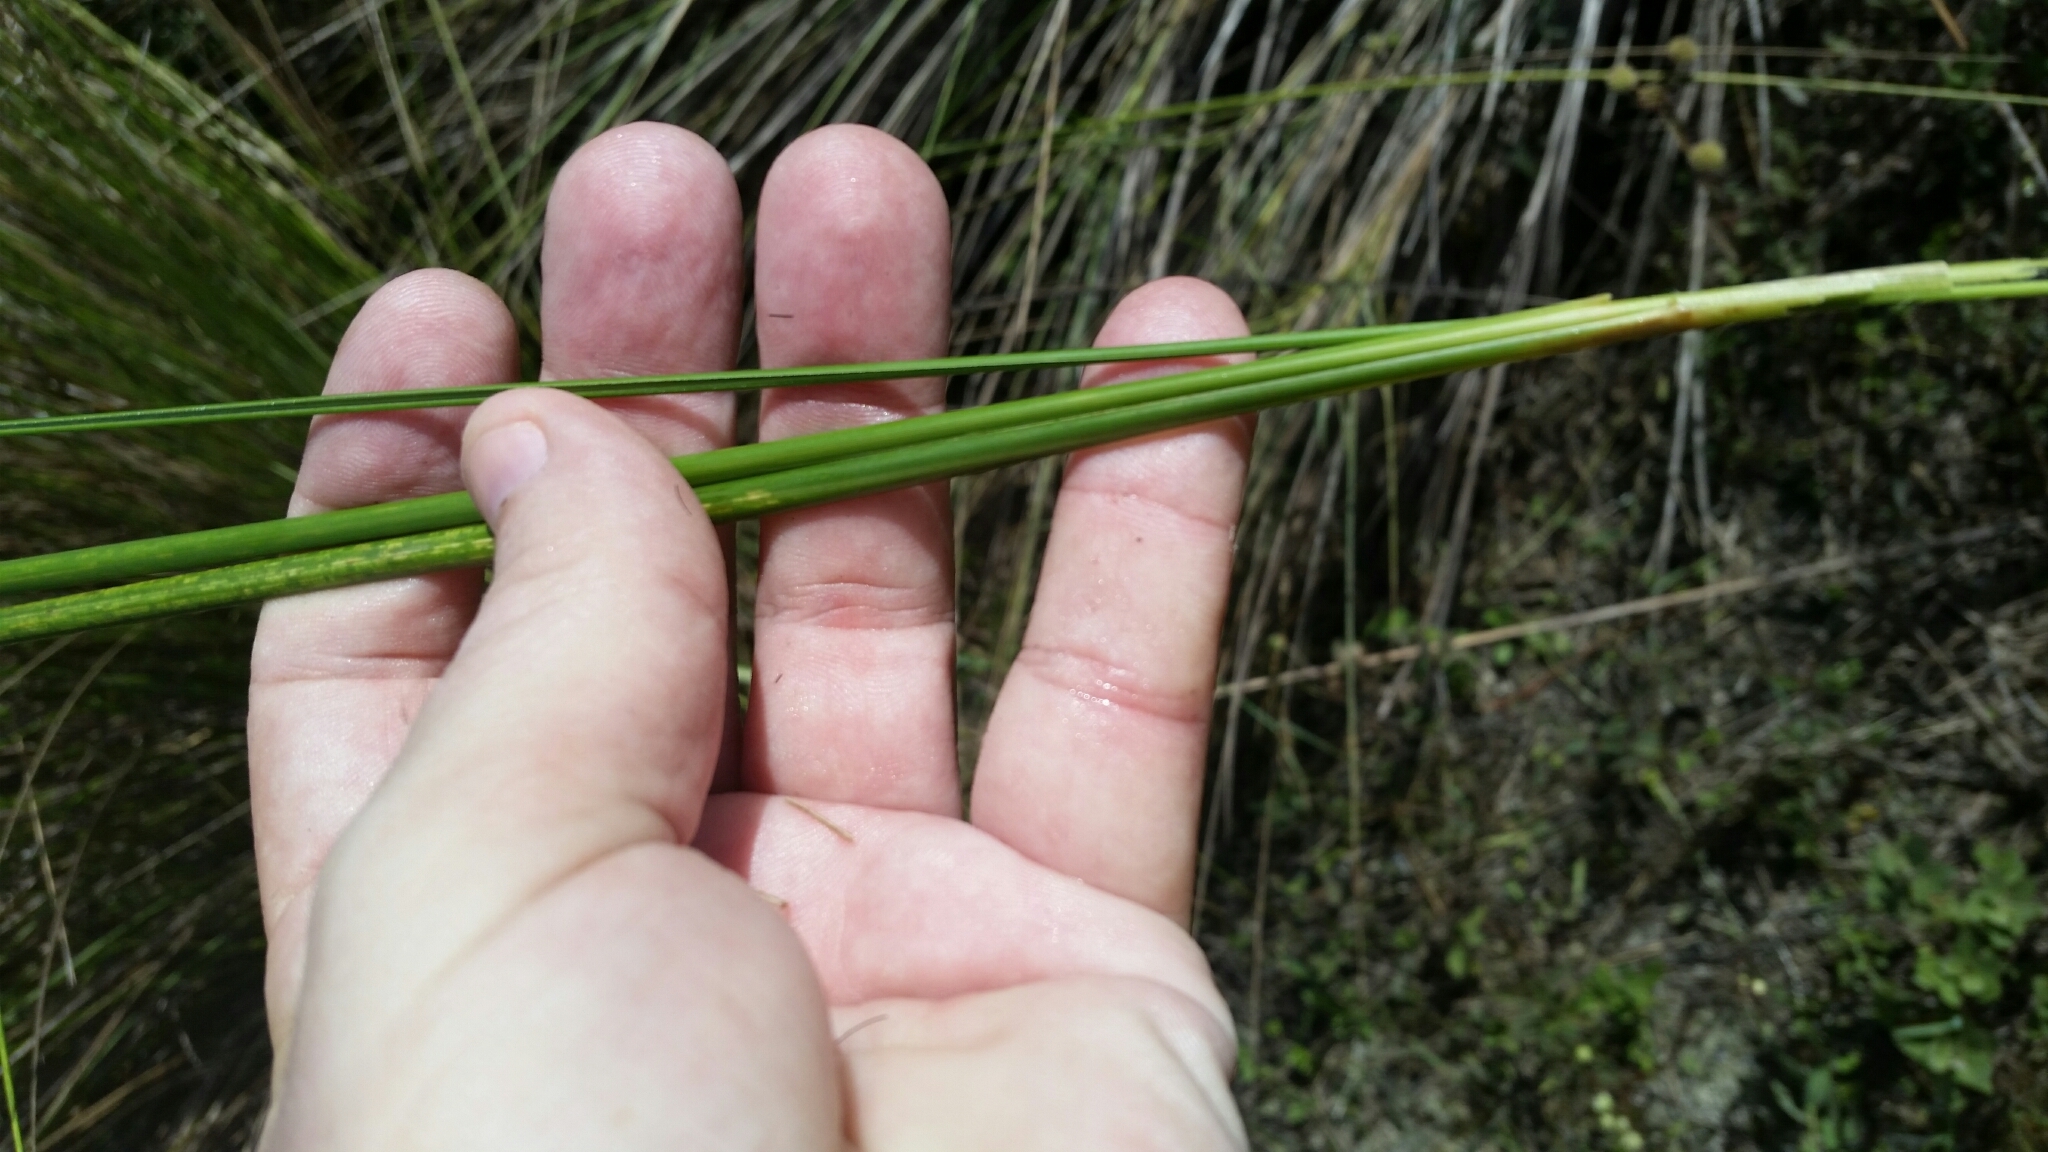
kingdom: Plantae
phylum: Tracheophyta
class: Liliopsida
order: Poales
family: Poaceae
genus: Sporobolus
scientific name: Sporobolus bakeri
